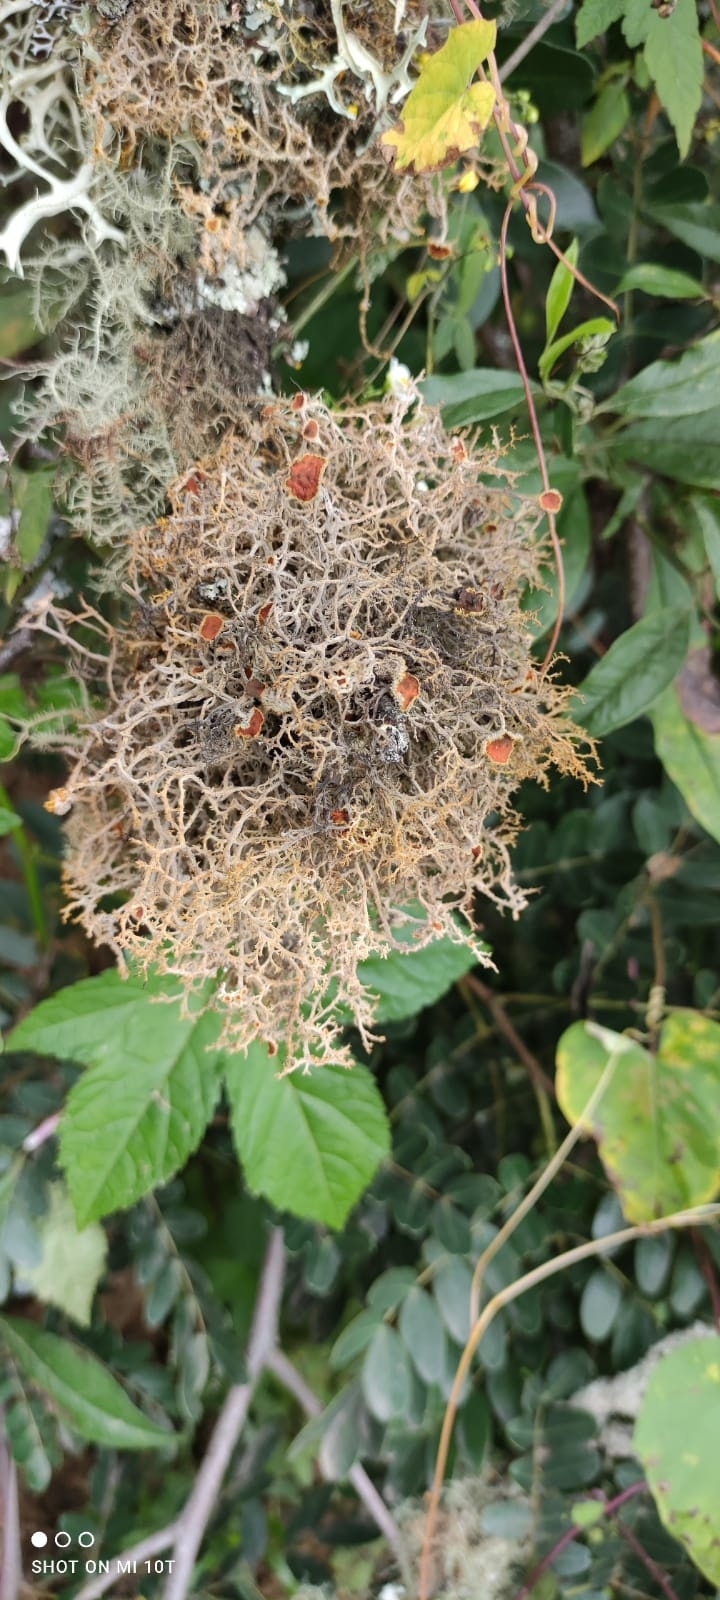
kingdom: Fungi
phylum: Ascomycota
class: Lecanoromycetes
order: Teloschistales
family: Teloschistaceae
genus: Teloschistes
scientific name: Teloschistes flavicans
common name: Golden hair-lichen
